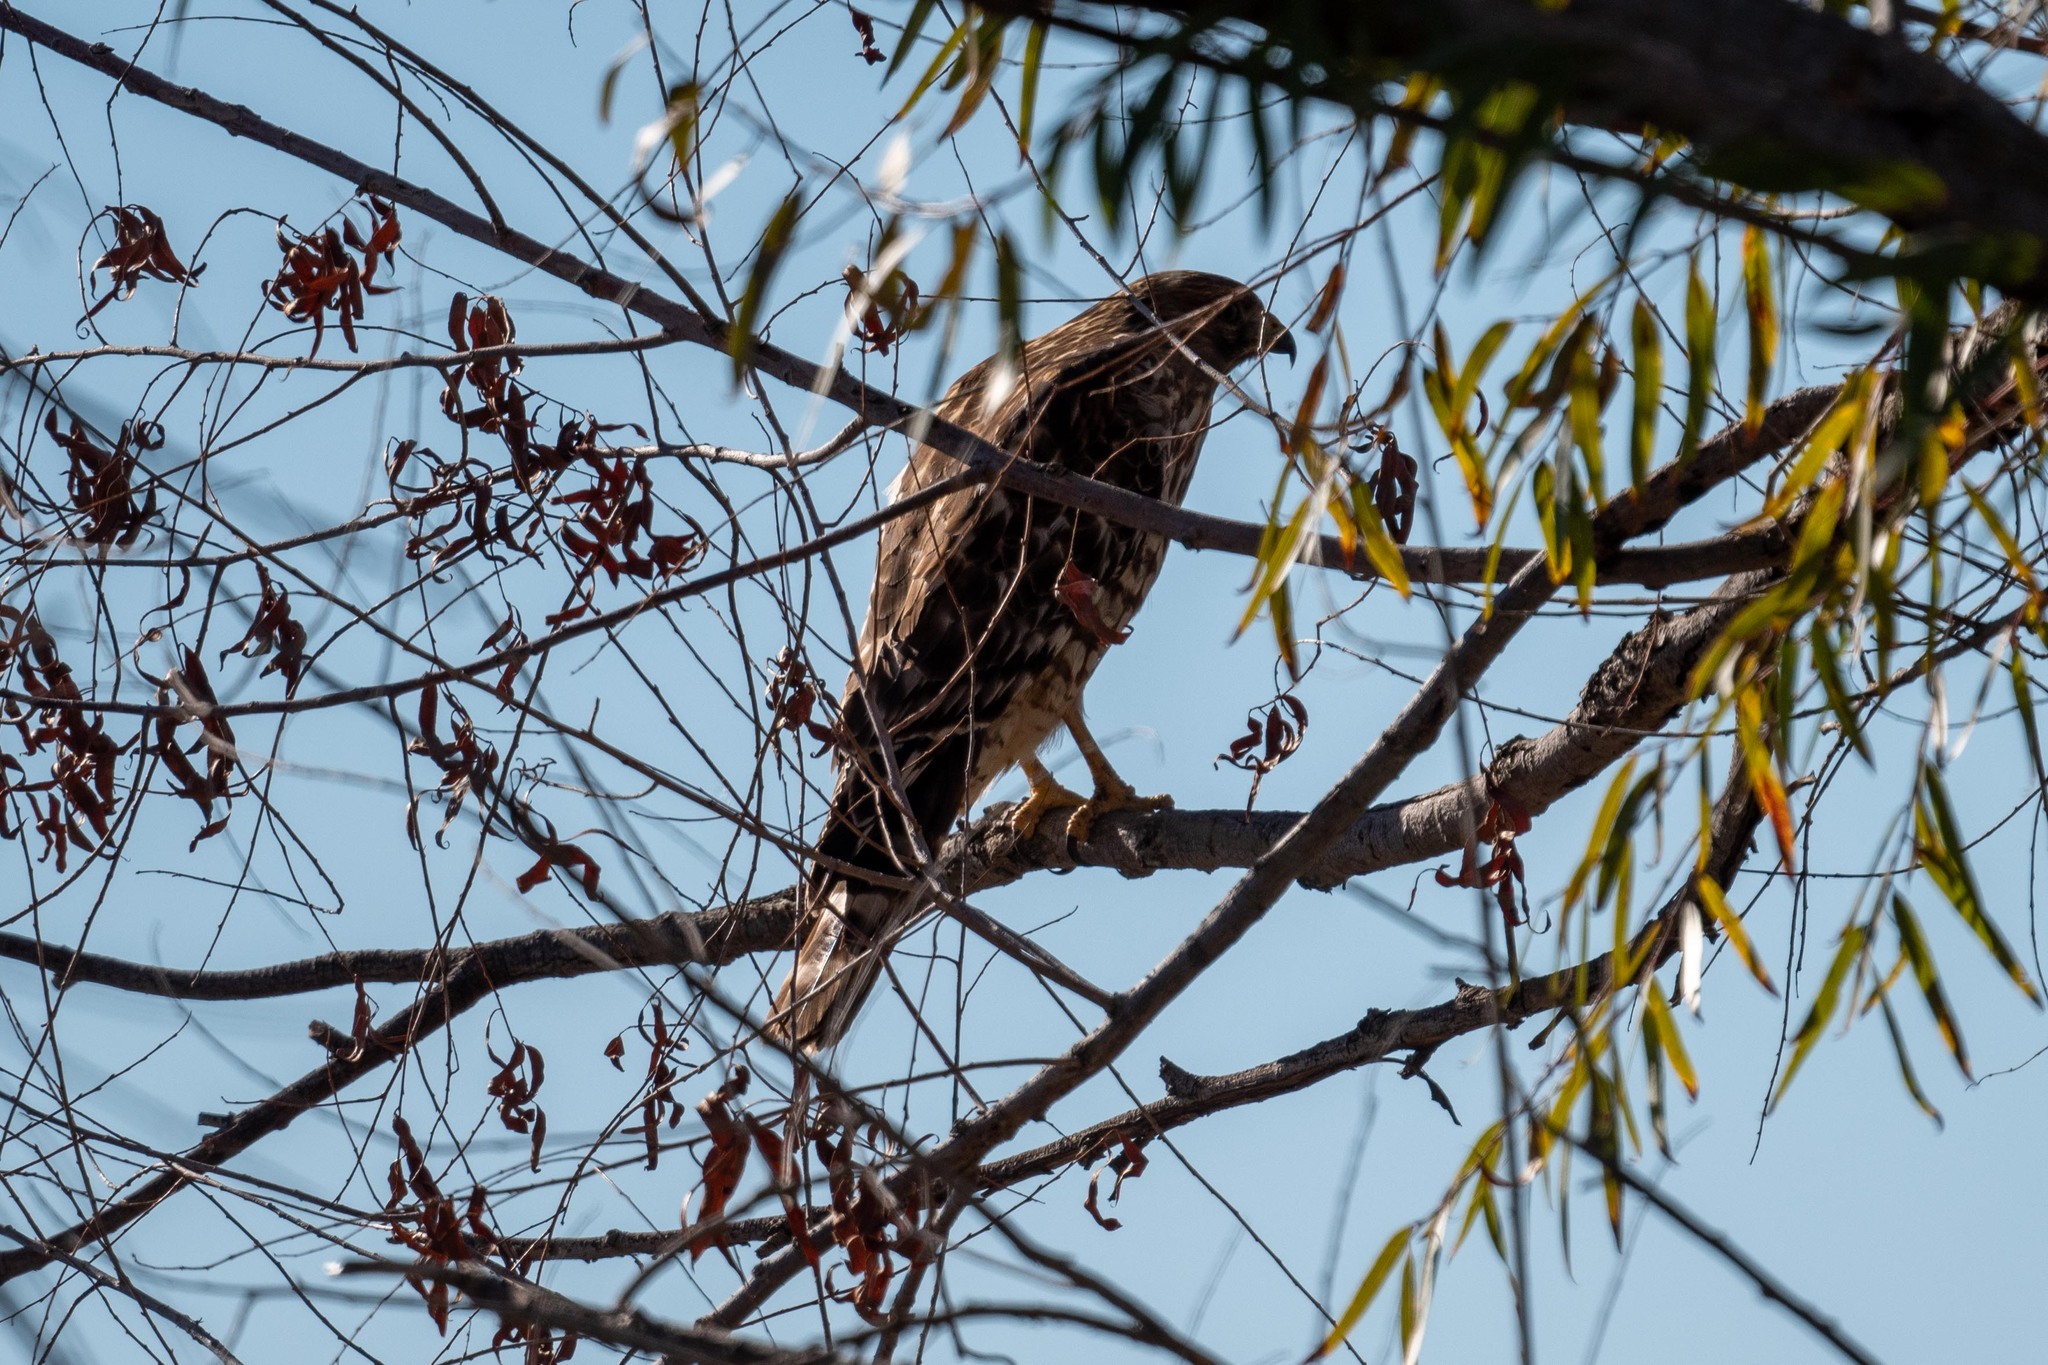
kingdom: Animalia
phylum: Chordata
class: Aves
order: Accipitriformes
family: Accipitridae
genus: Buteo
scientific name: Buteo lineatus
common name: Red-shouldered hawk
